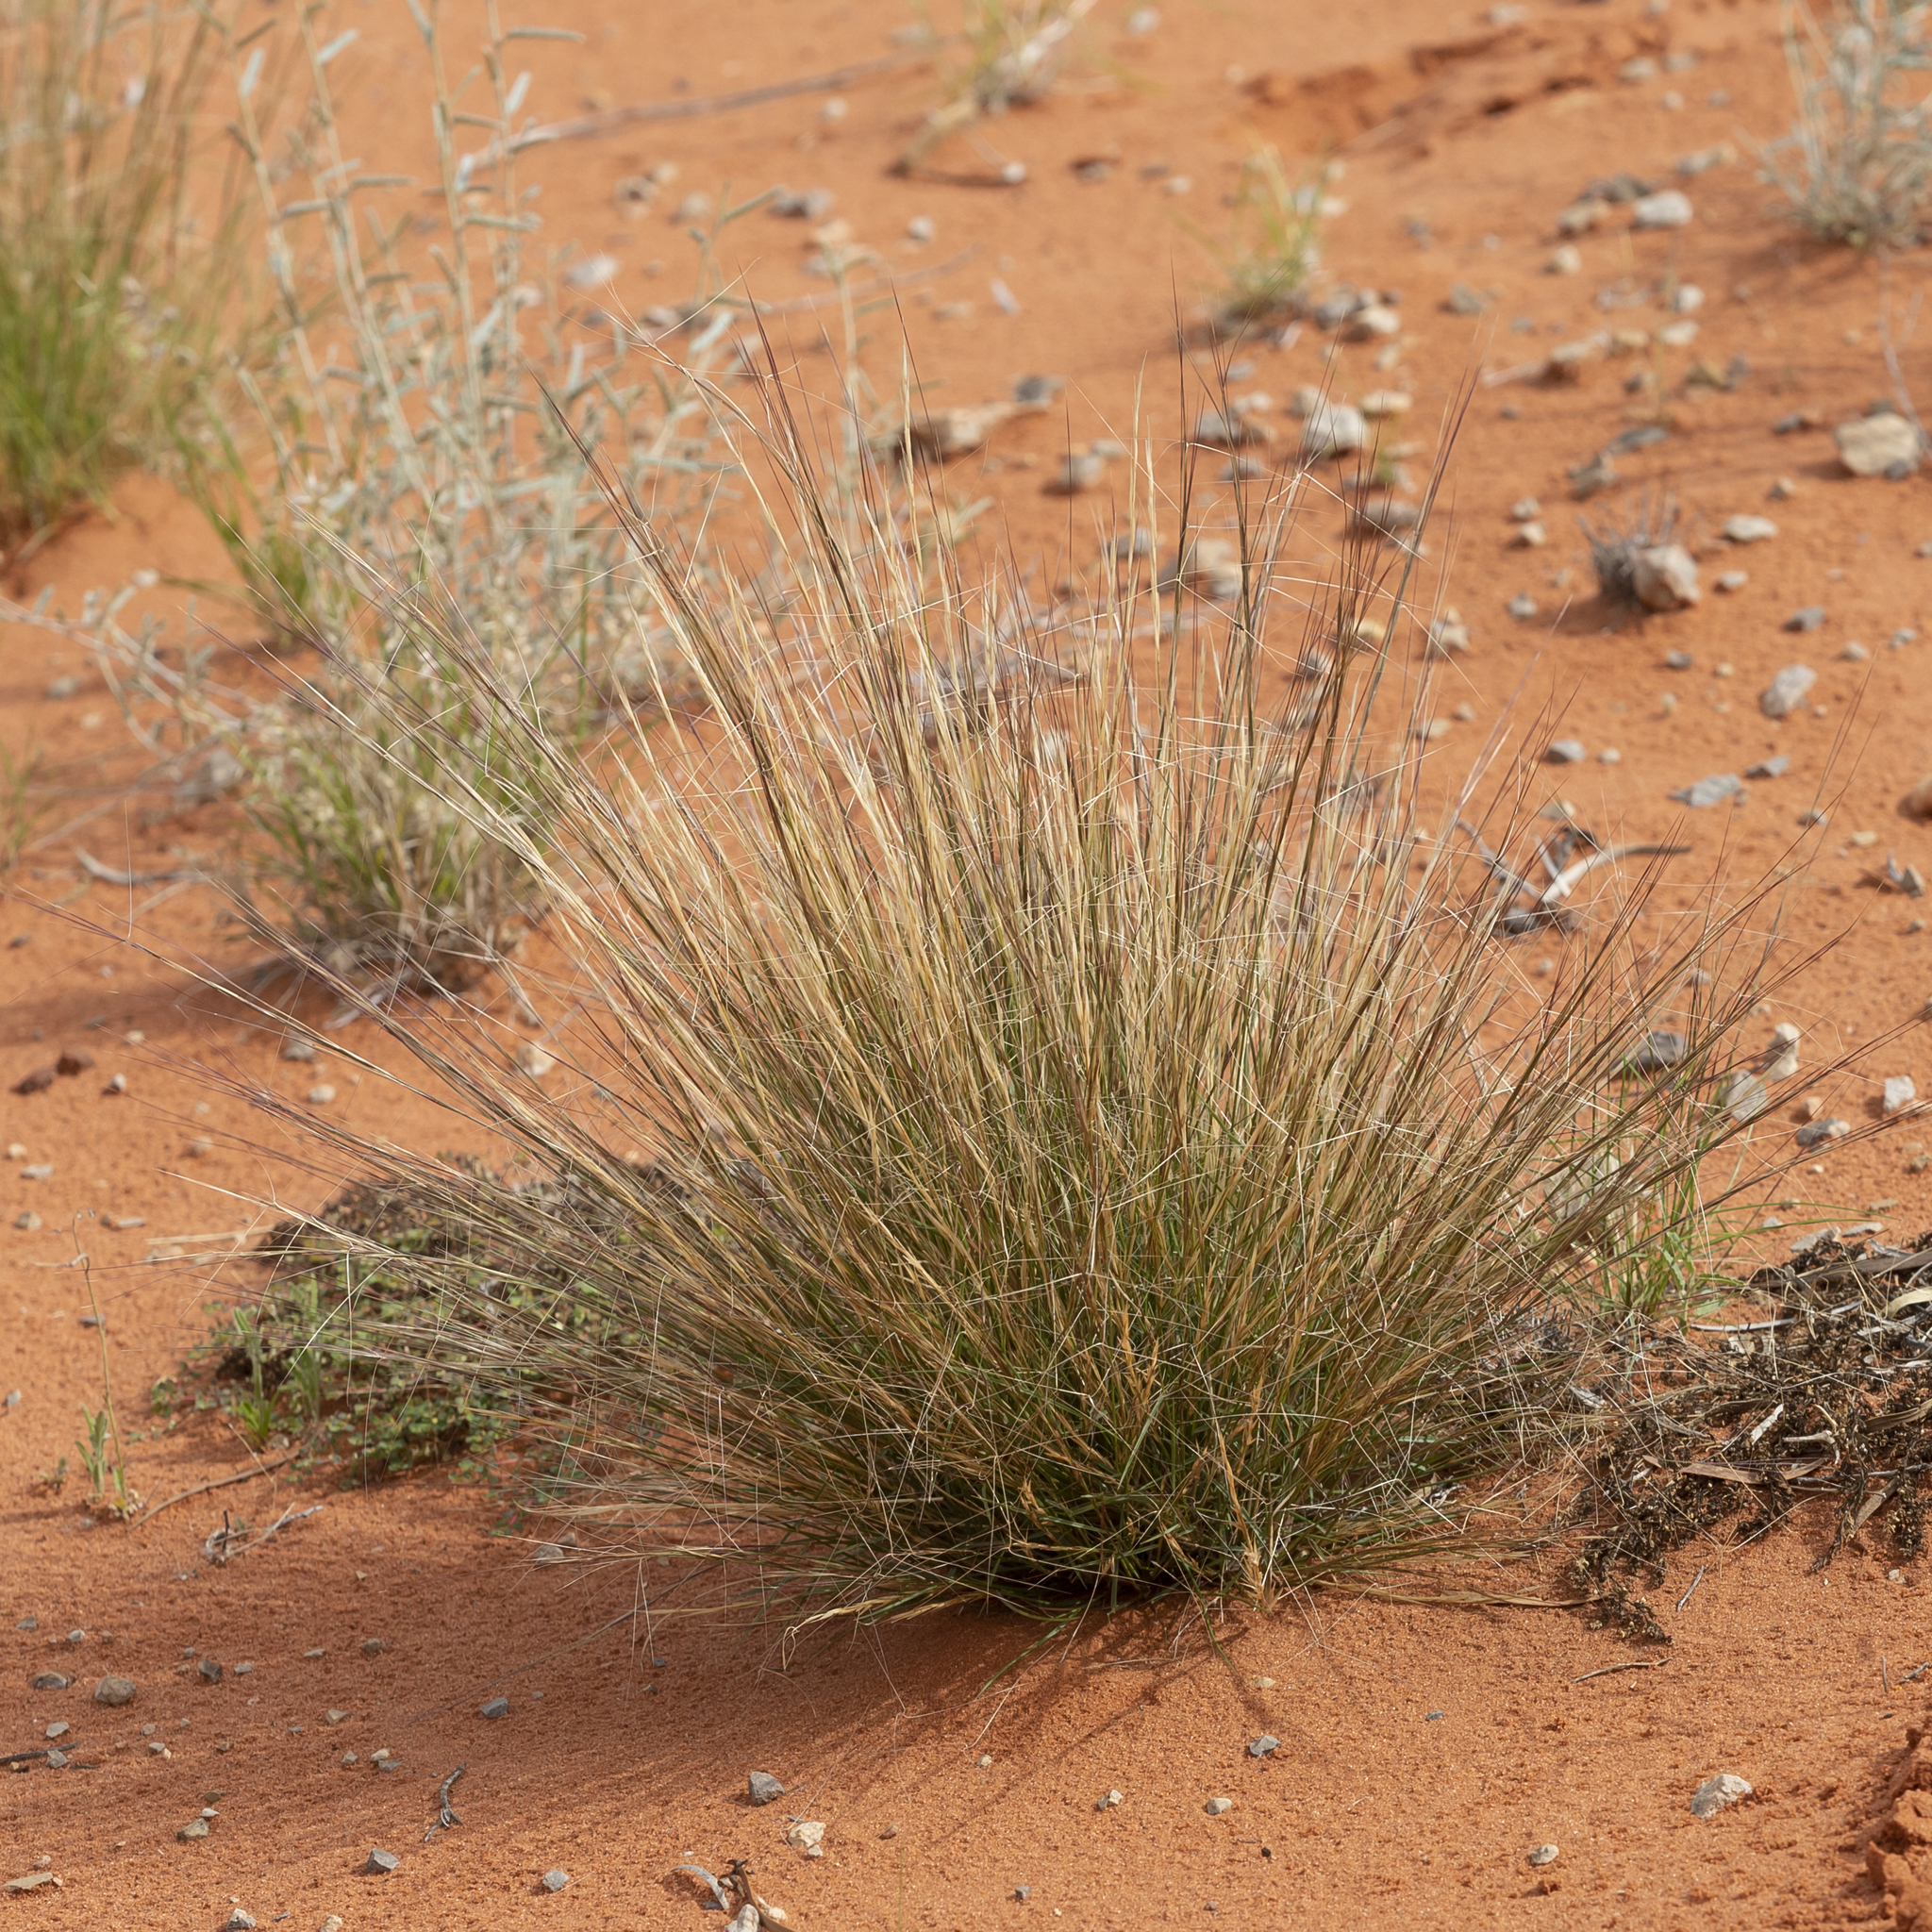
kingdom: Plantae
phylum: Tracheophyta
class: Liliopsida
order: Poales
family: Poaceae
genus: Aristida
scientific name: Aristida holathera
